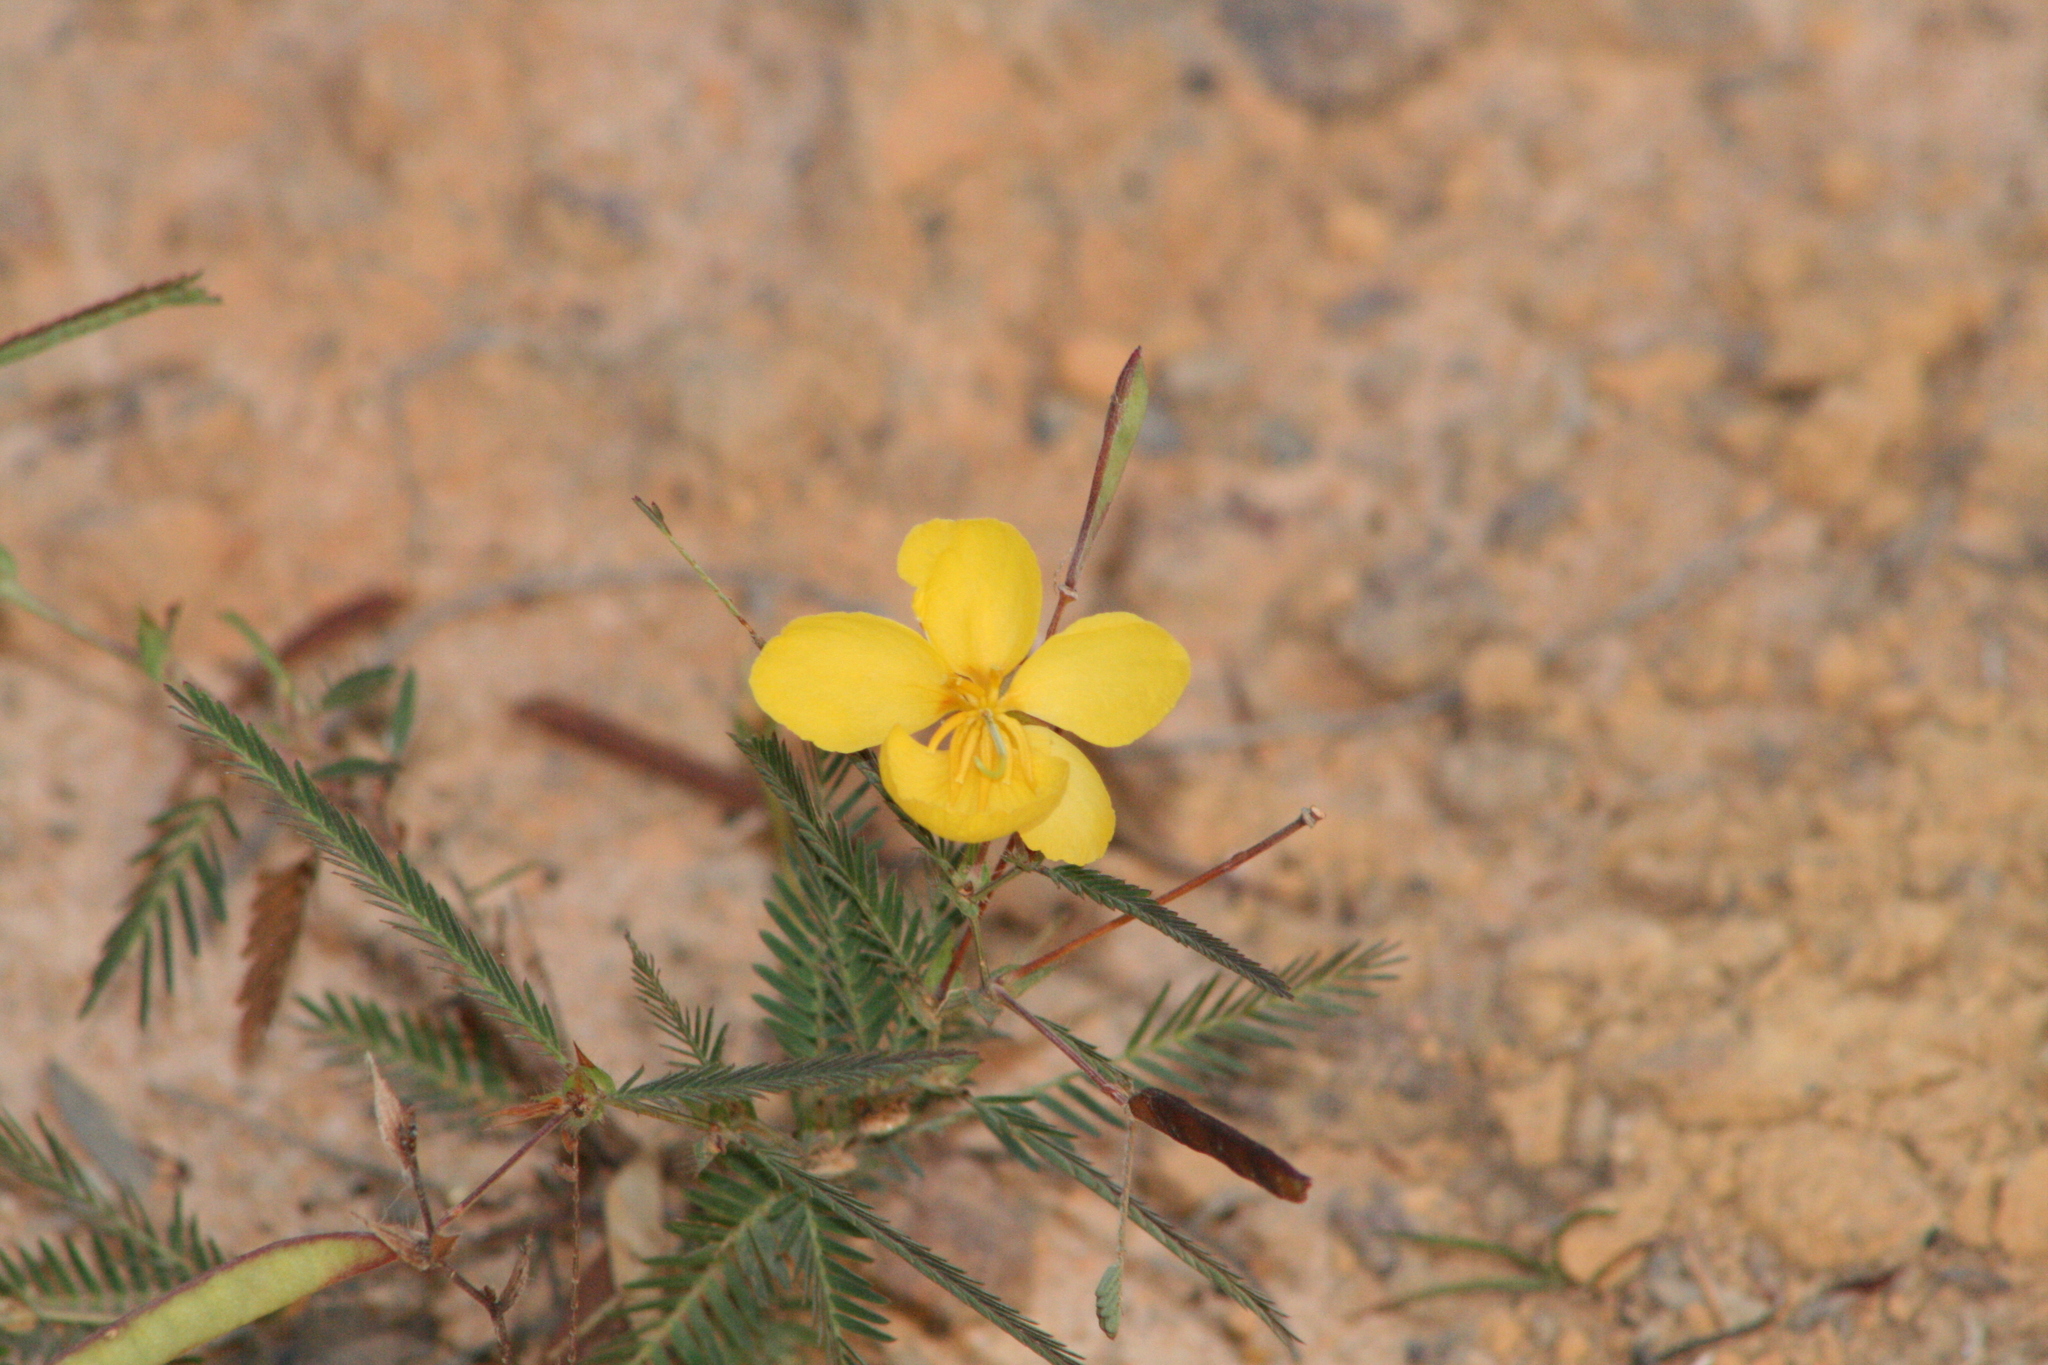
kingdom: Plantae
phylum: Tracheophyta
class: Magnoliopsida
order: Fabales
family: Fabaceae
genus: Chamaecrista
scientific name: Chamaecrista nictitans
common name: Sensitive cassia
